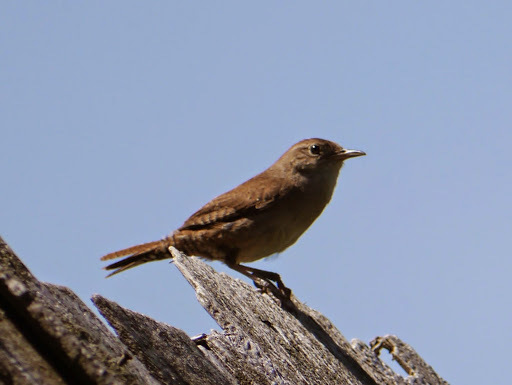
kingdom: Animalia
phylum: Chordata
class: Aves
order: Passeriformes
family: Troglodytidae
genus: Troglodytes
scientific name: Troglodytes aedon
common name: House wren
